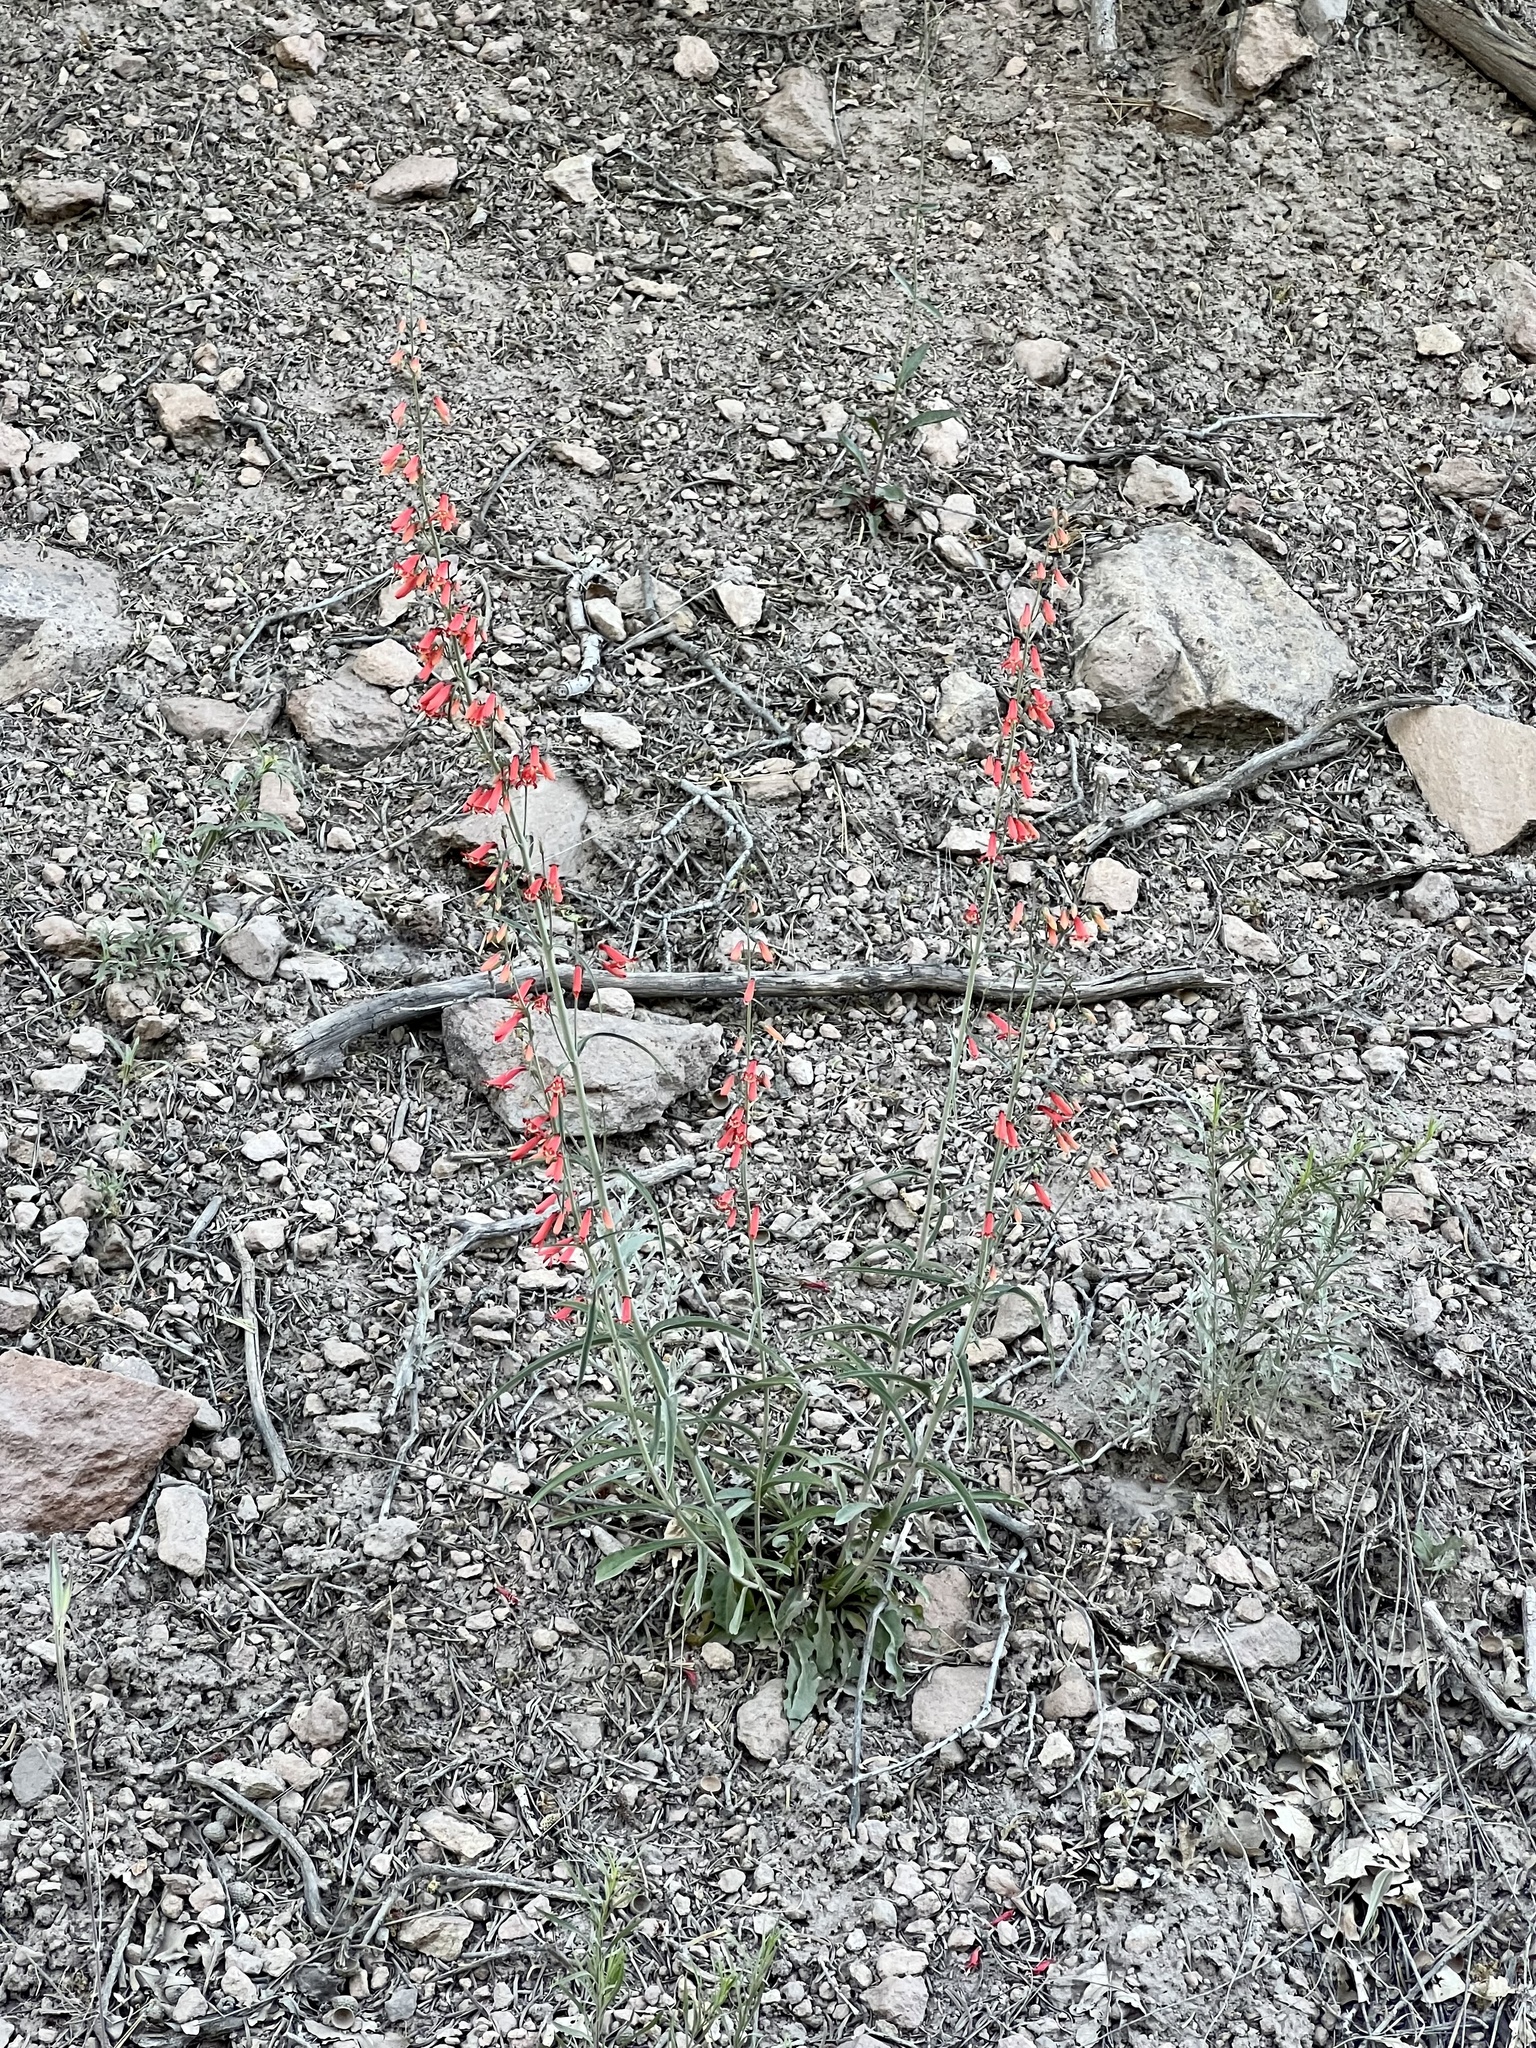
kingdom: Plantae
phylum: Tracheophyta
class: Magnoliopsida
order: Lamiales
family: Plantaginaceae
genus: Penstemon
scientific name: Penstemon barbatus
